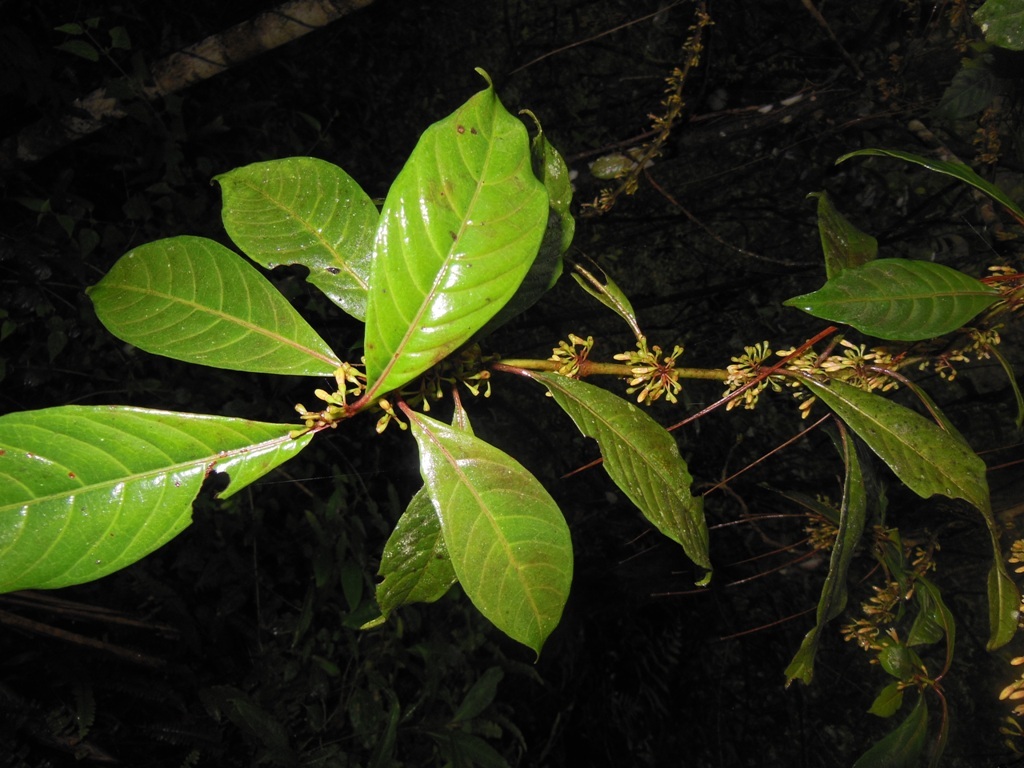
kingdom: Plantae
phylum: Tracheophyta
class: Magnoliopsida
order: Gentianales
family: Rubiaceae
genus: Hoffmannia
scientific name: Hoffmannia steyermarkii
